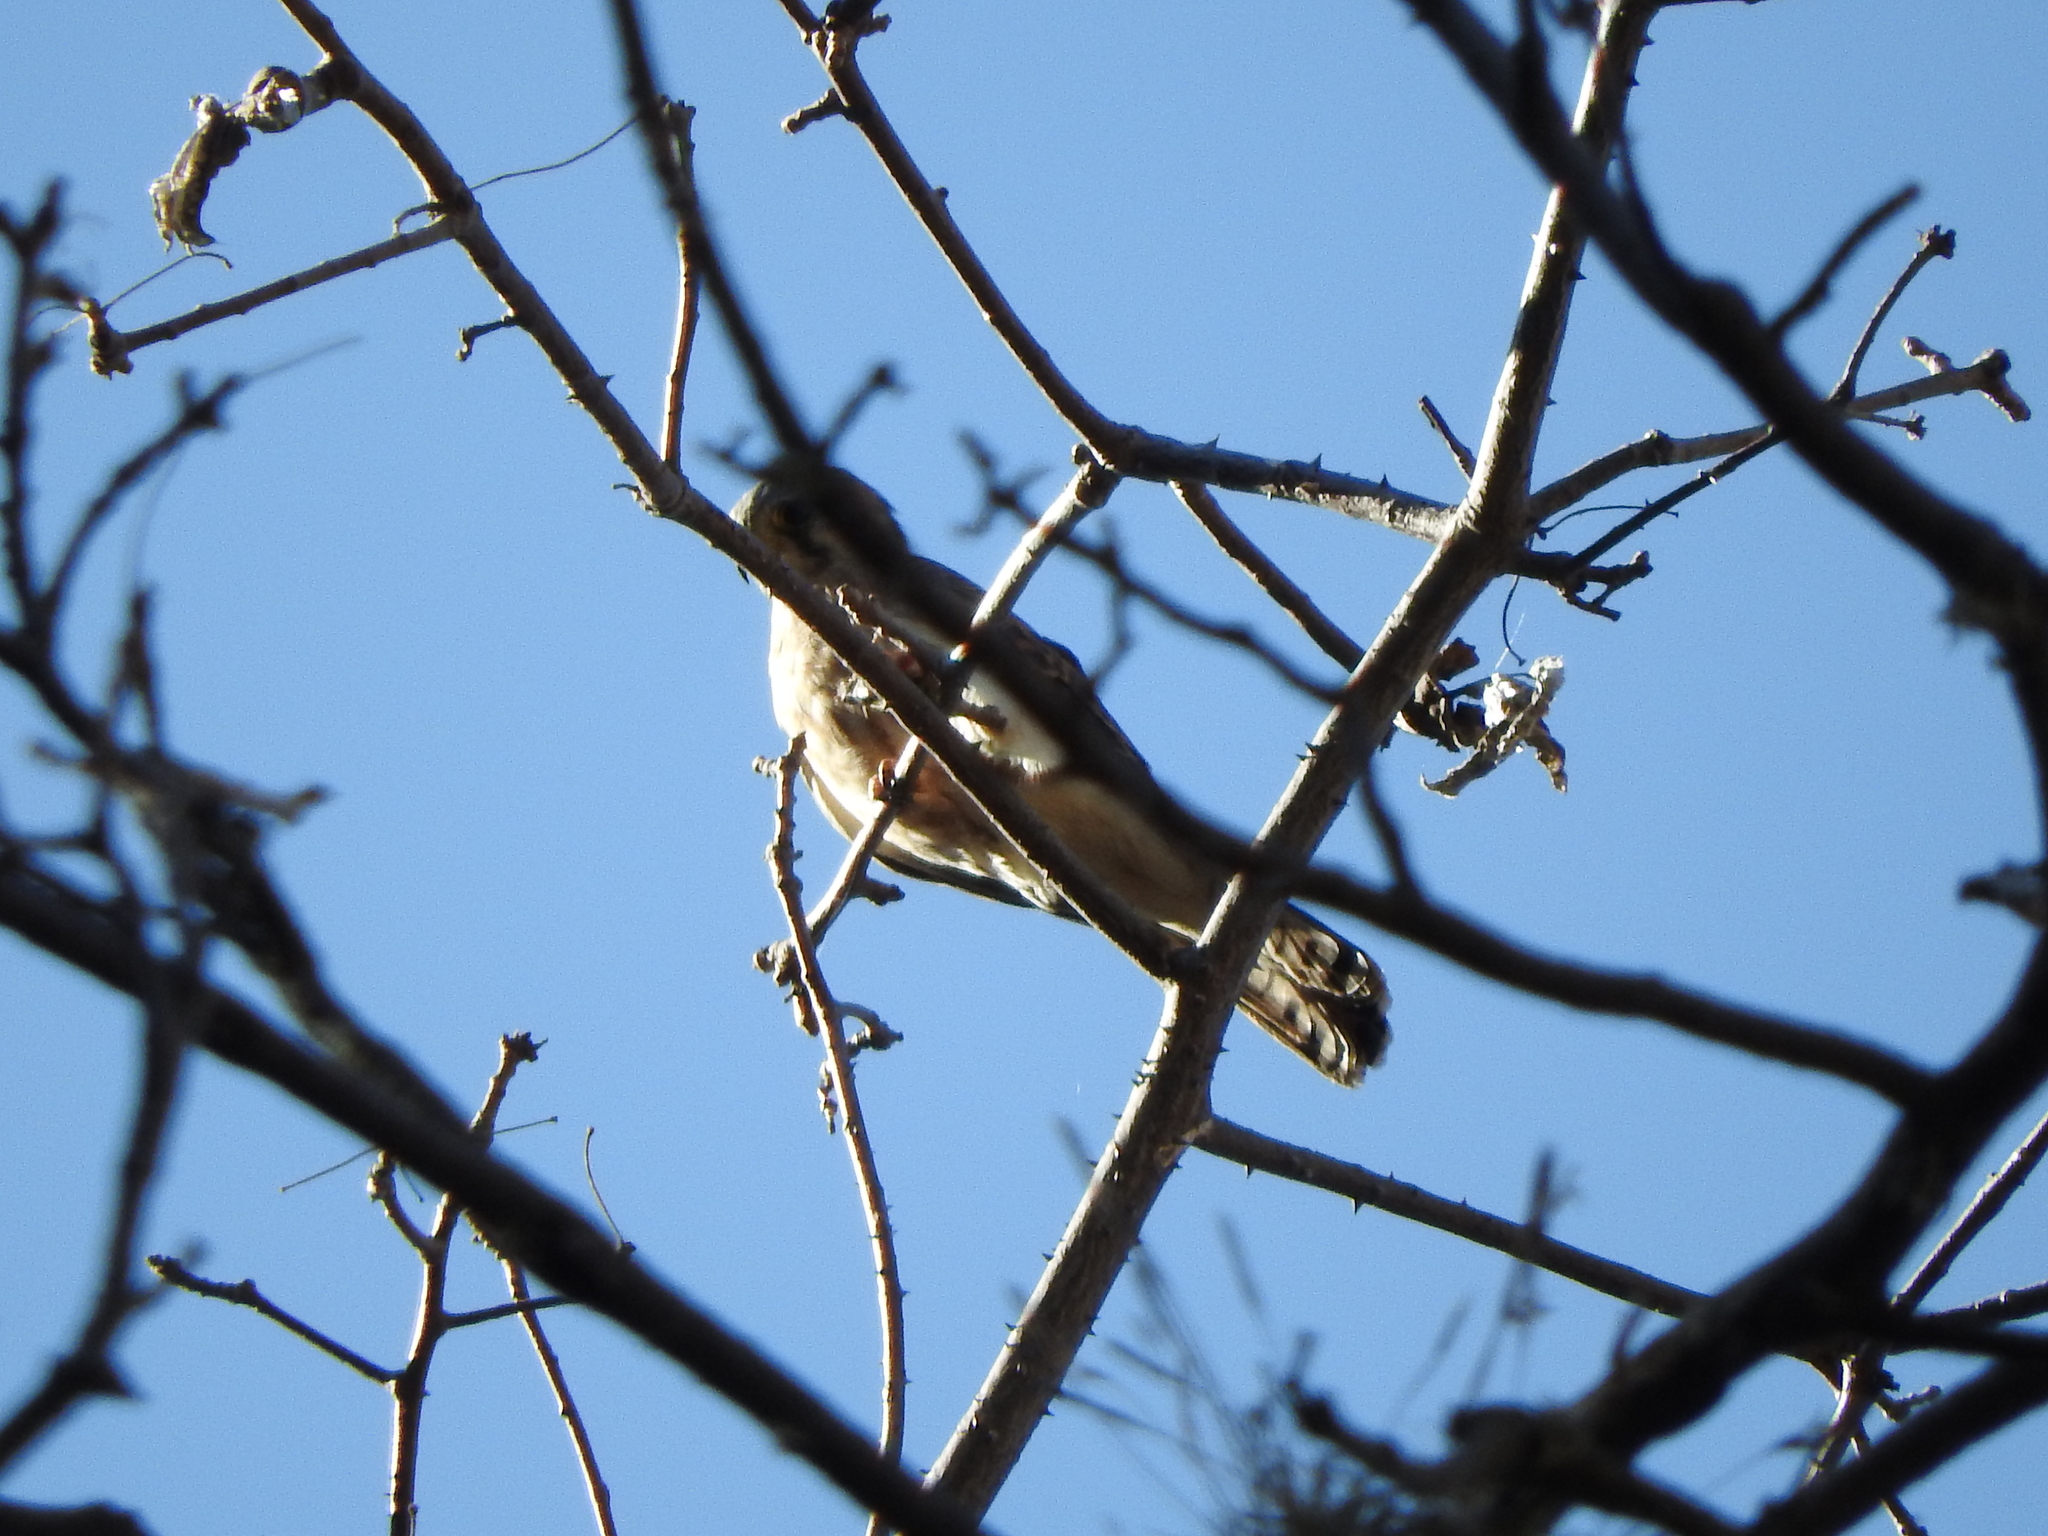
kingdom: Animalia
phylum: Chordata
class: Aves
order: Falconiformes
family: Falconidae
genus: Falco
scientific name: Falco sparverius
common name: American kestrel
